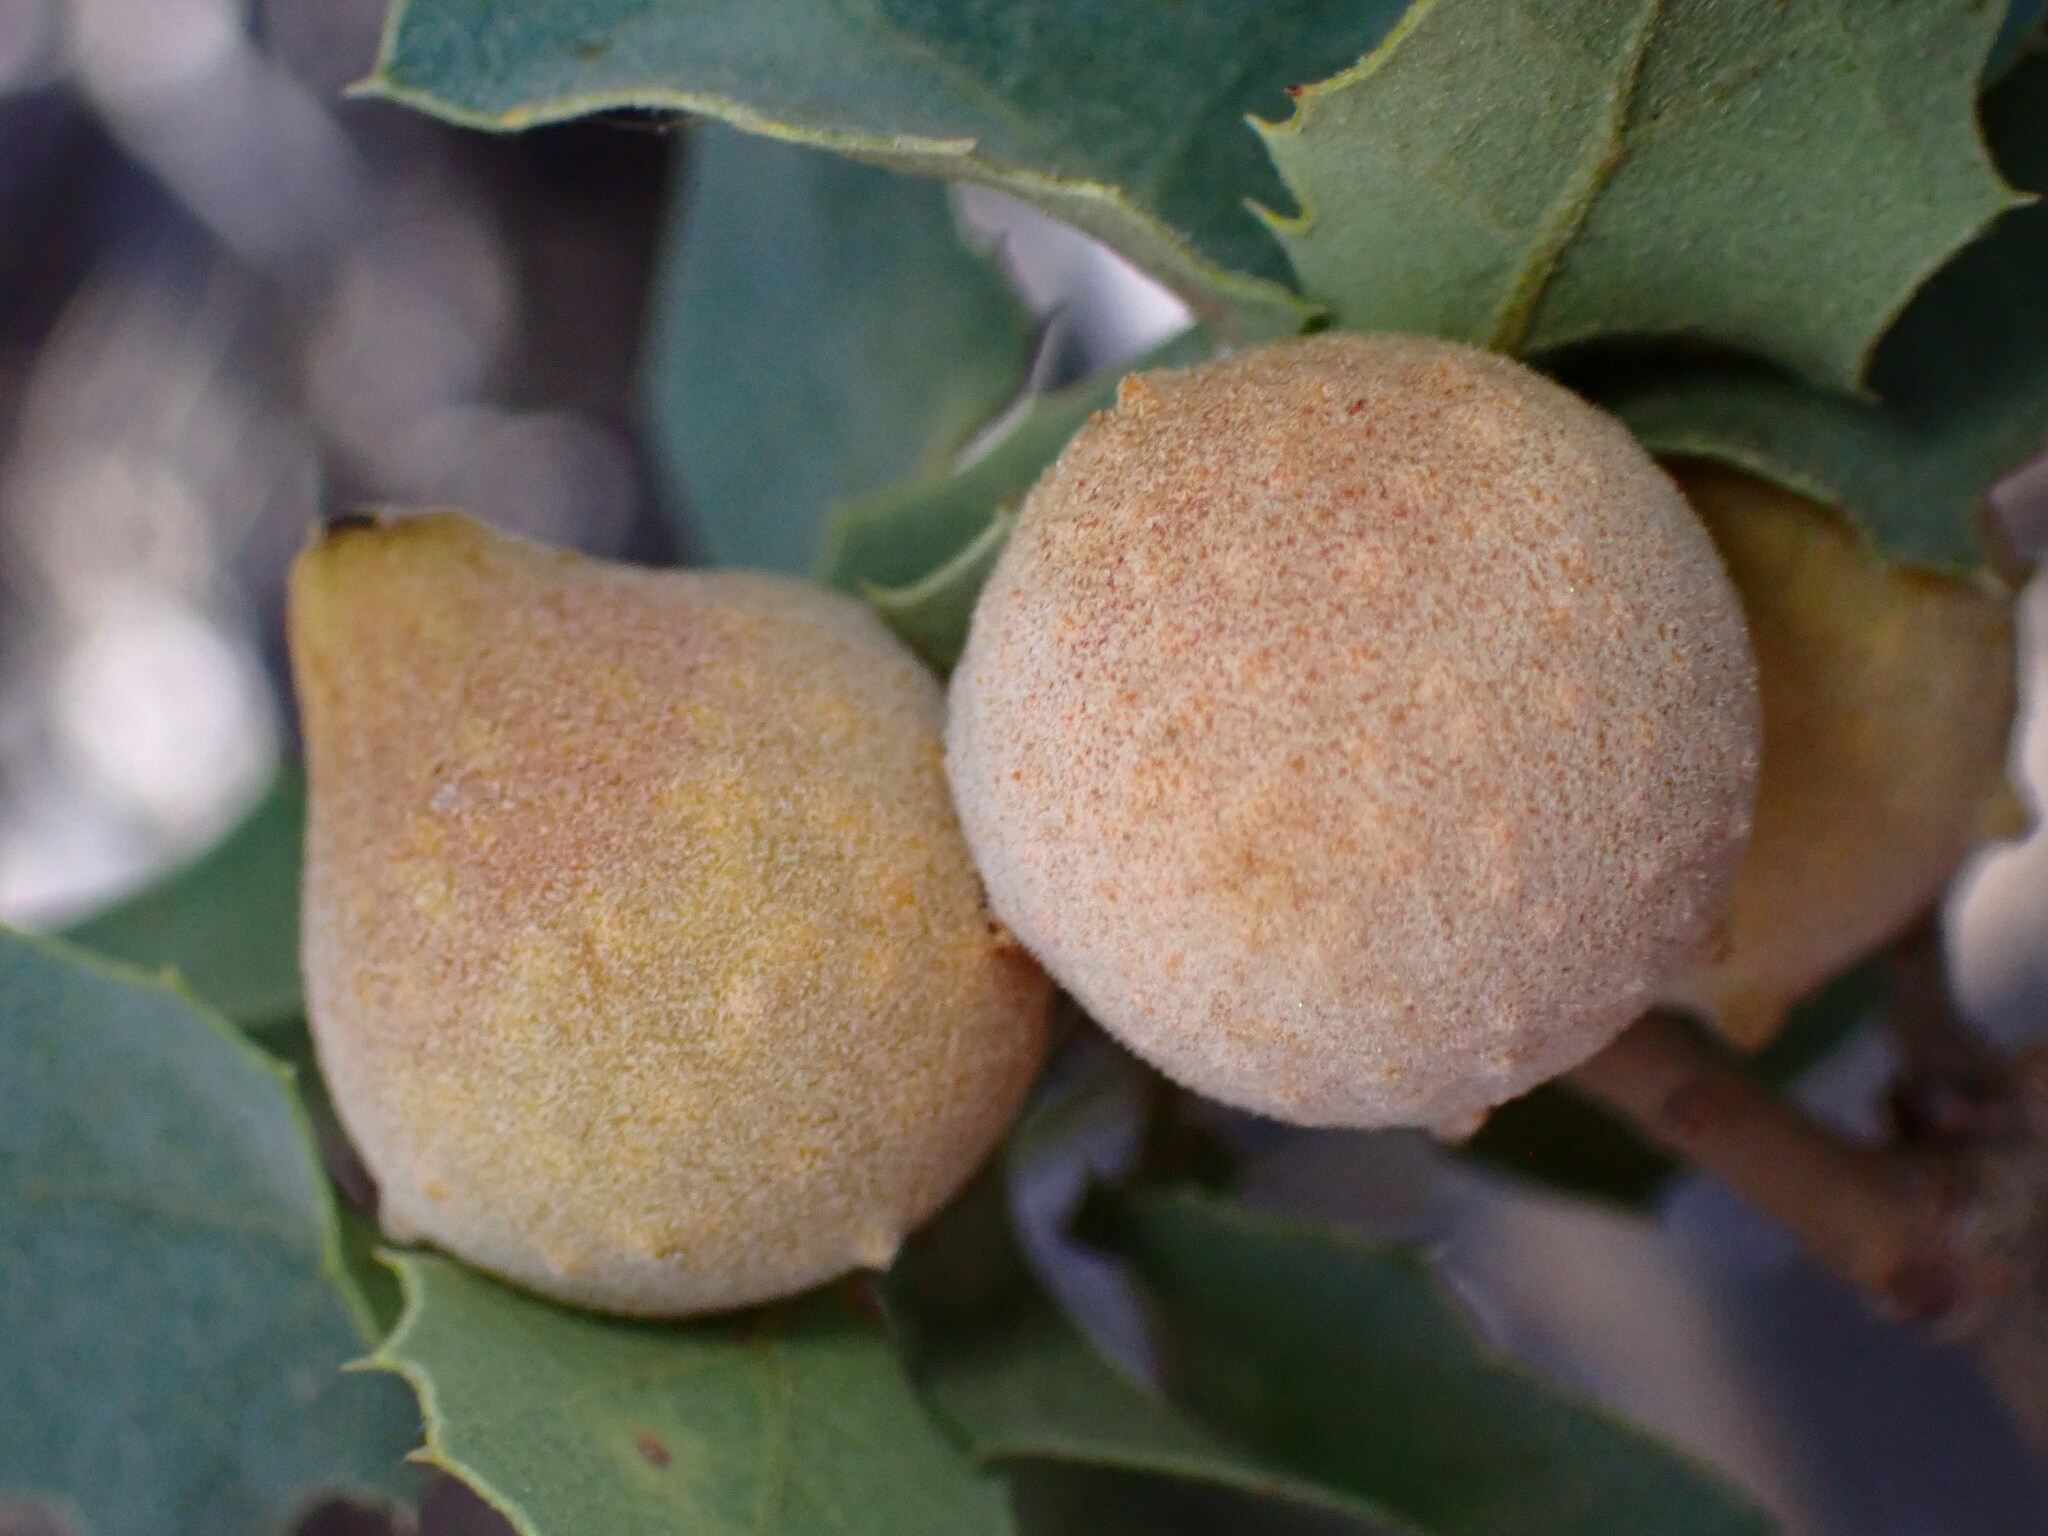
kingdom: Animalia
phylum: Arthropoda
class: Insecta
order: Hymenoptera
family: Cynipidae
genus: Burnettweldia
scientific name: Burnettweldia
